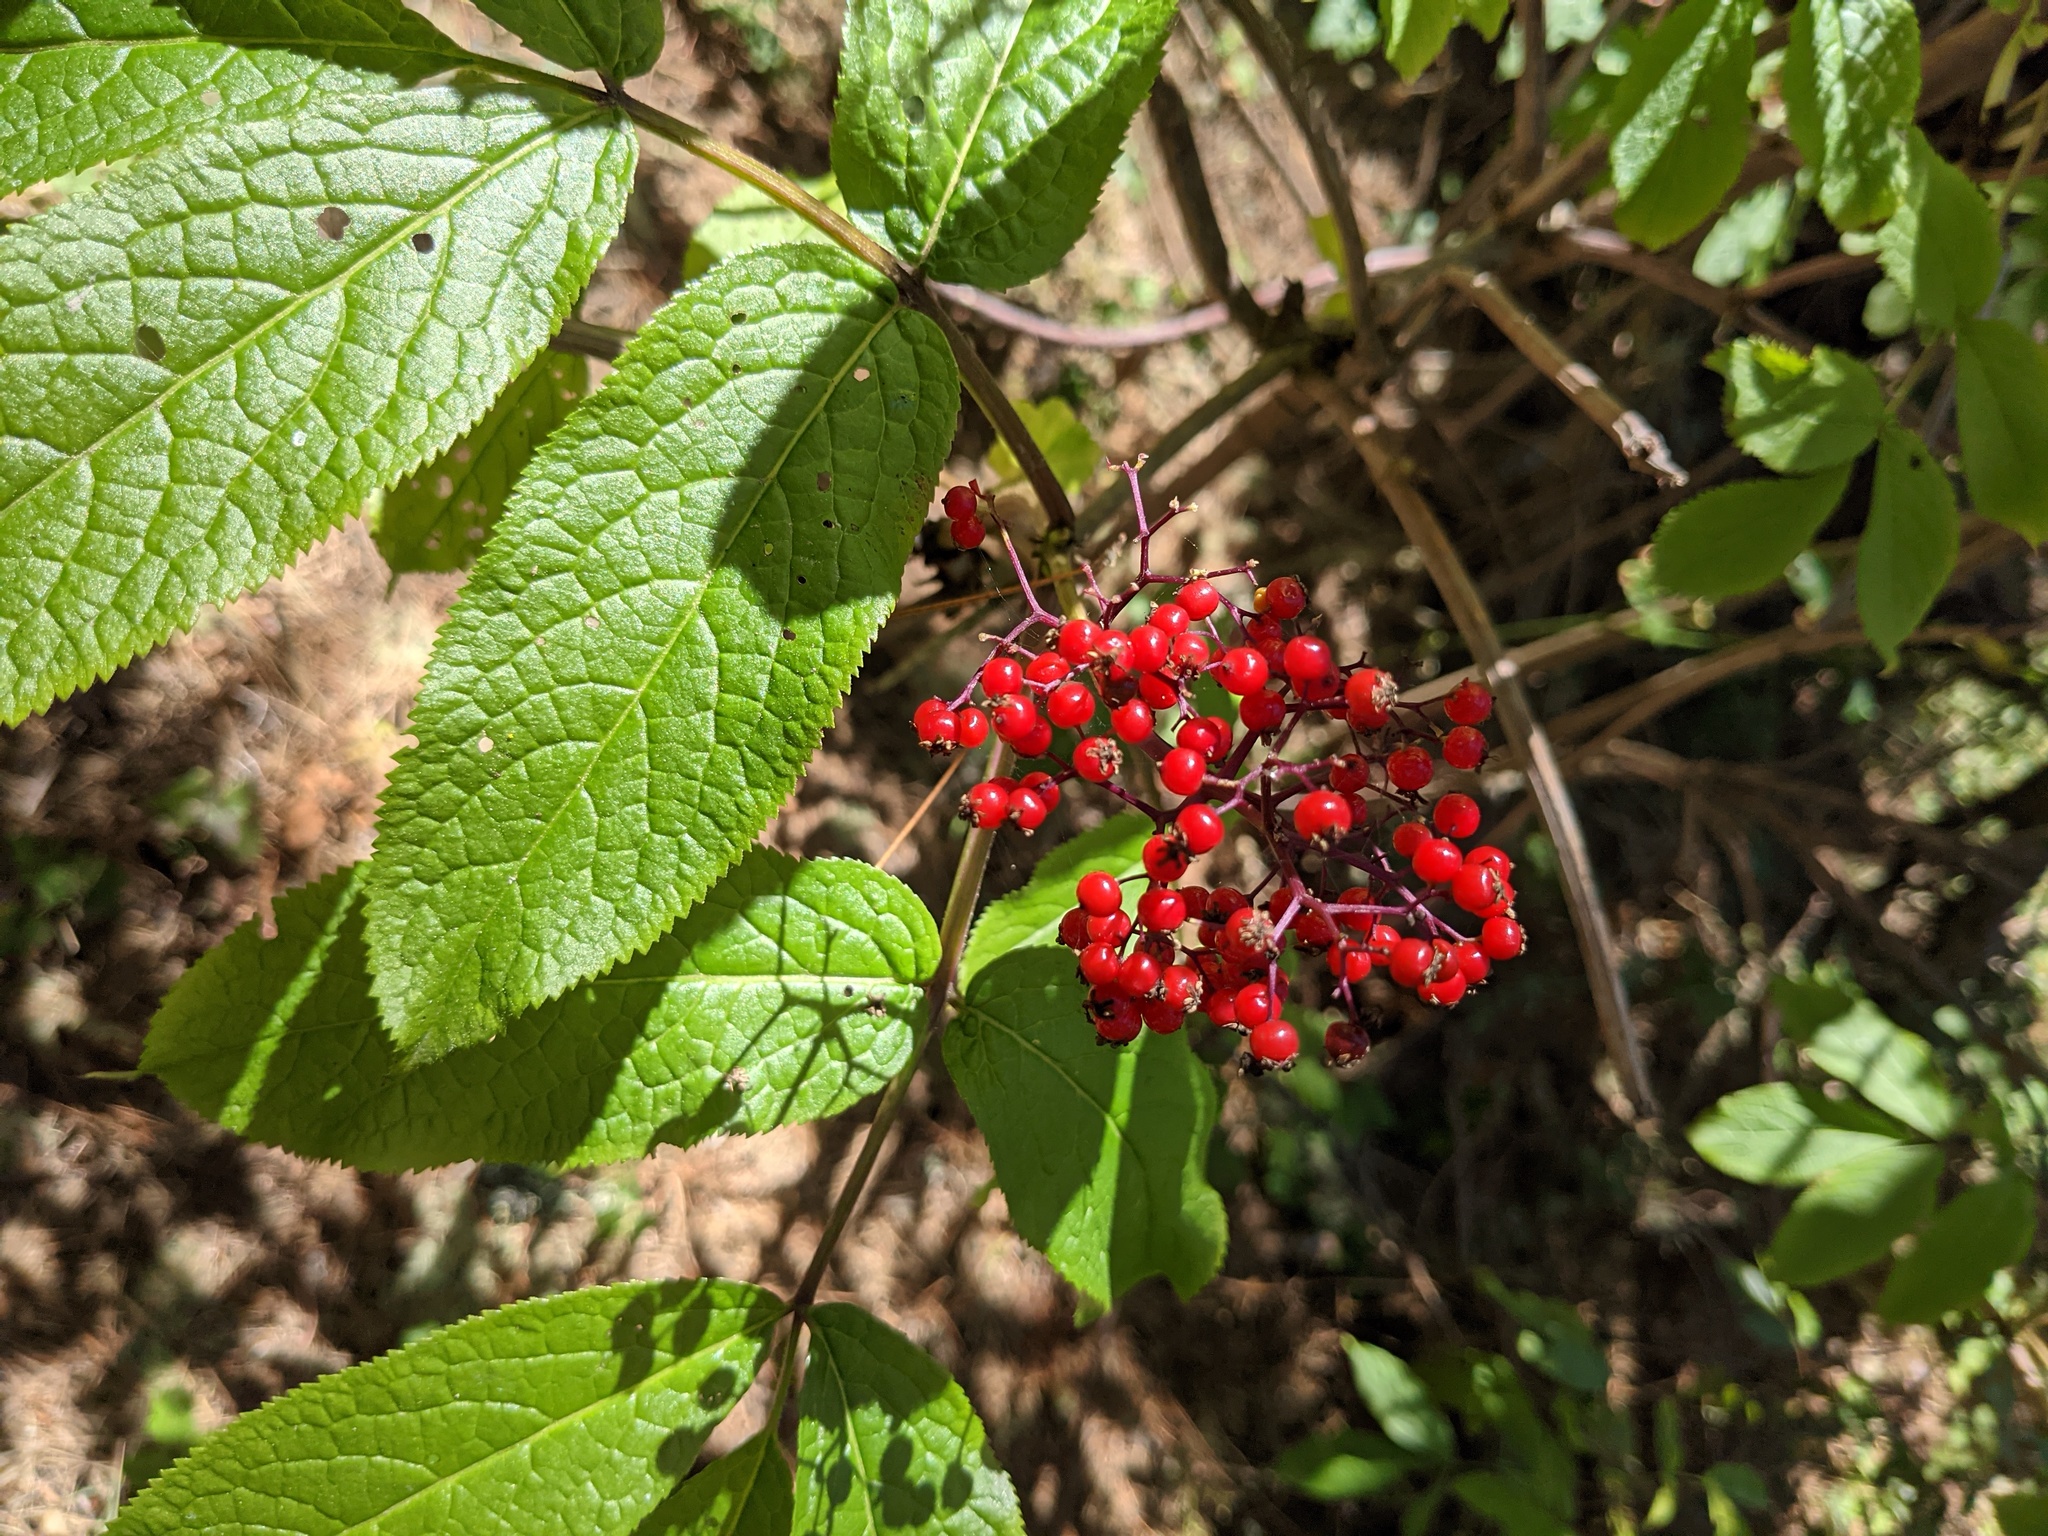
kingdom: Plantae
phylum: Tracheophyta
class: Magnoliopsida
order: Dipsacales
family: Viburnaceae
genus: Sambucus
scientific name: Sambucus racemosa
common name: Red-berried elder
